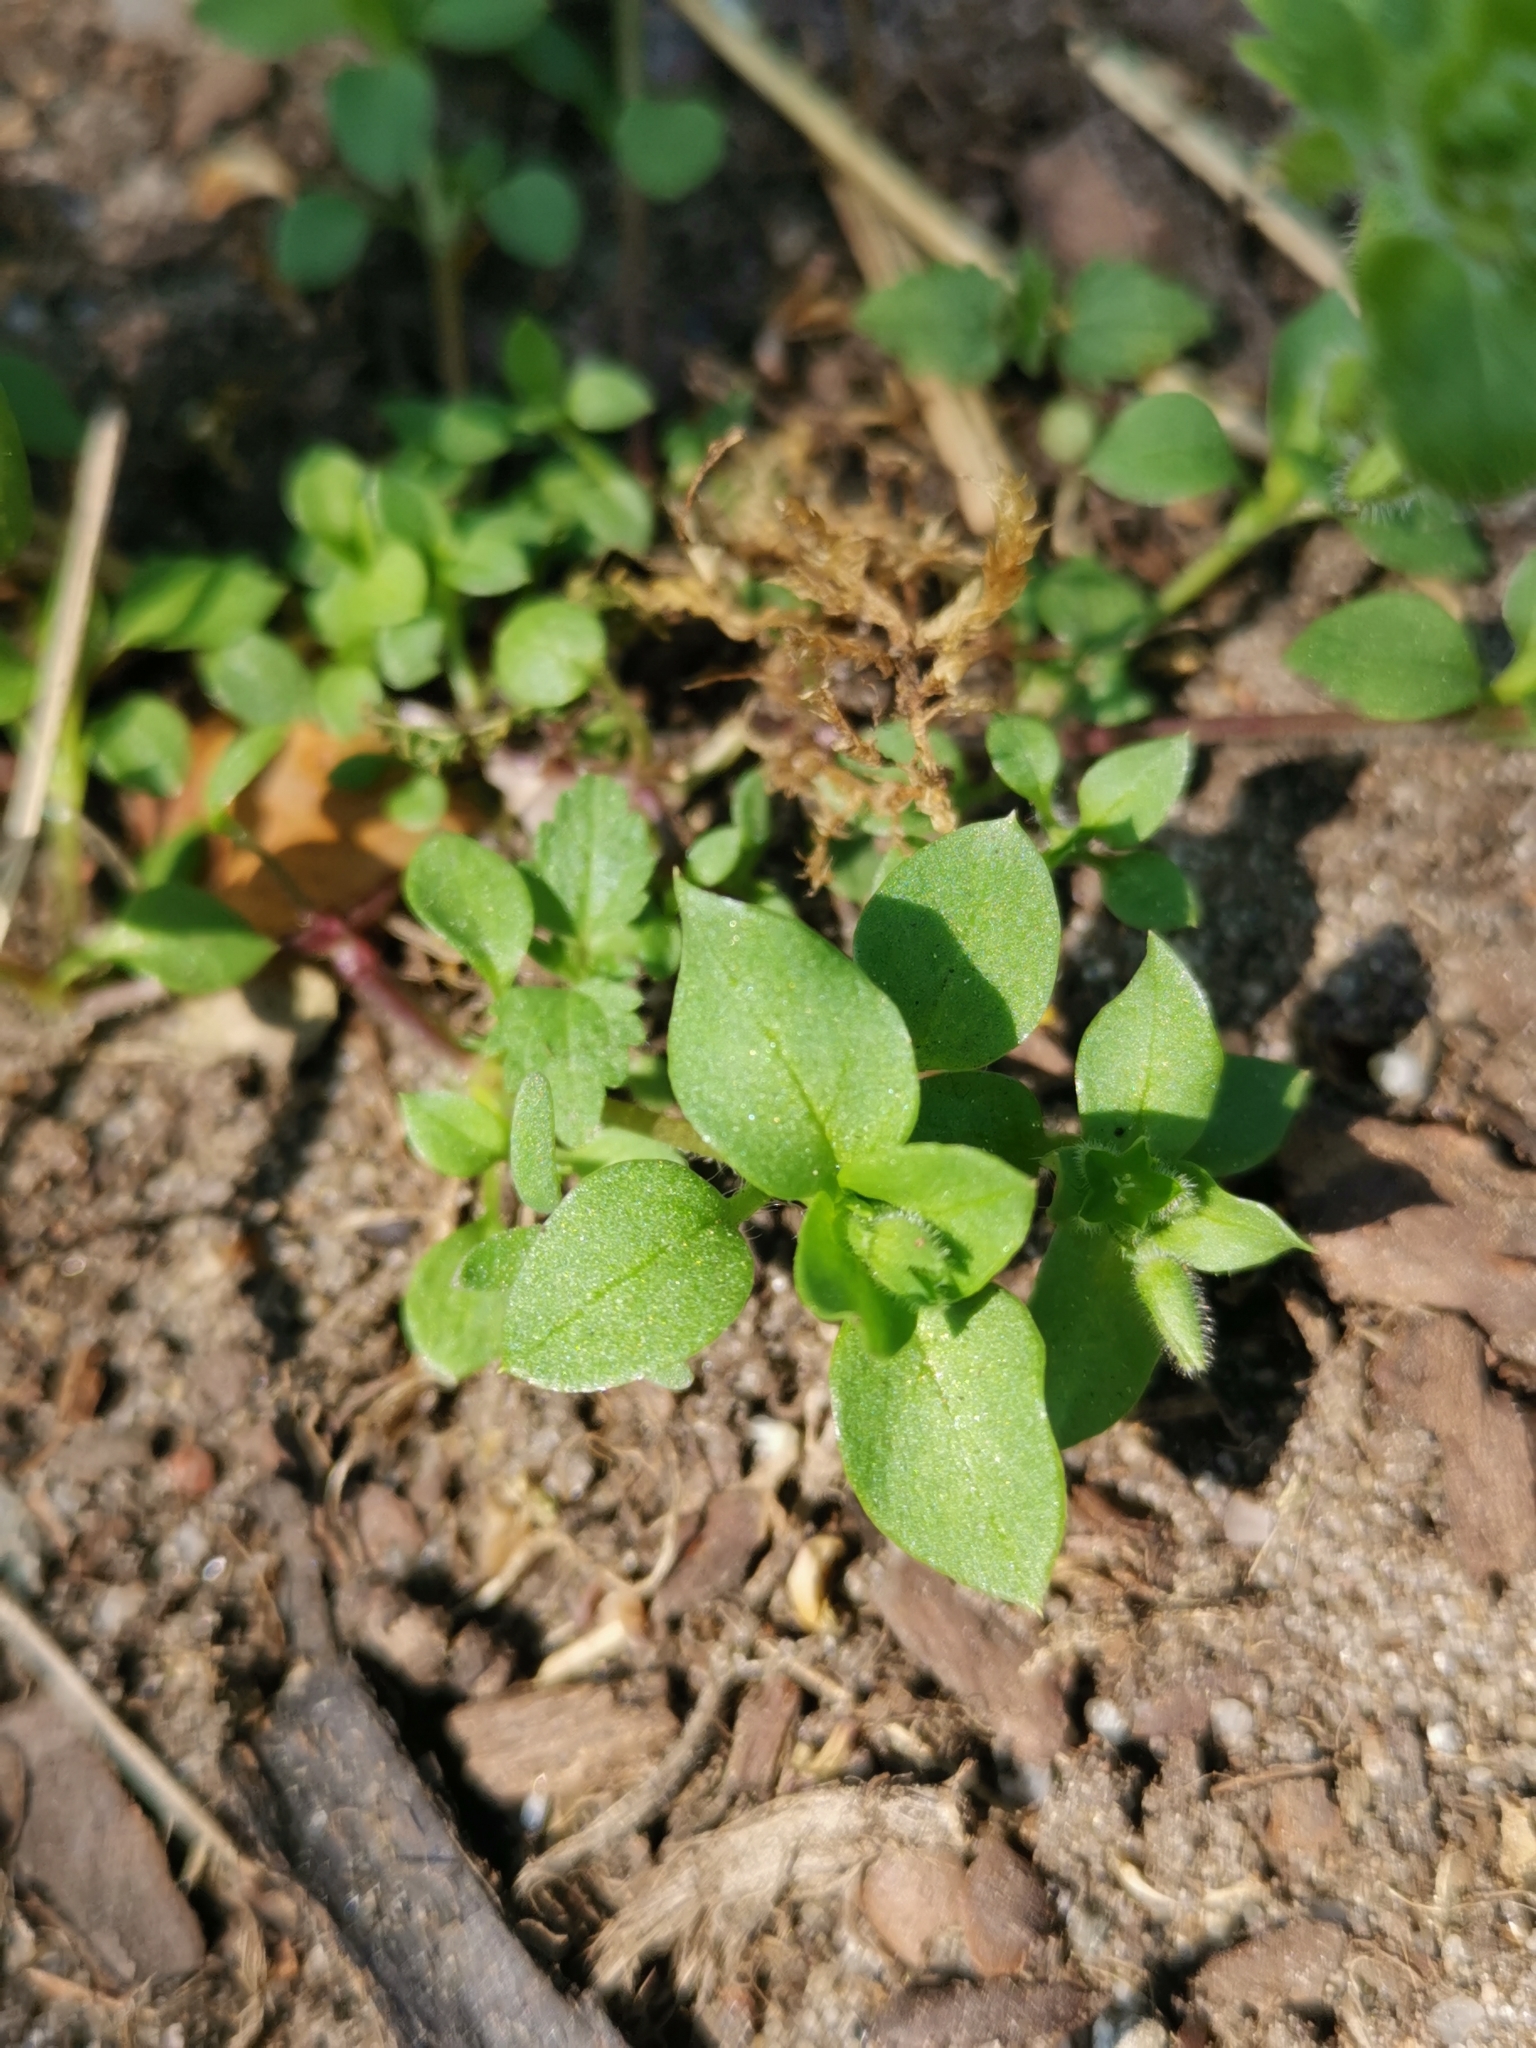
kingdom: Plantae
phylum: Tracheophyta
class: Magnoliopsida
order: Caryophyllales
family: Caryophyllaceae
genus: Stellaria
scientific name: Stellaria media
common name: Common chickweed
